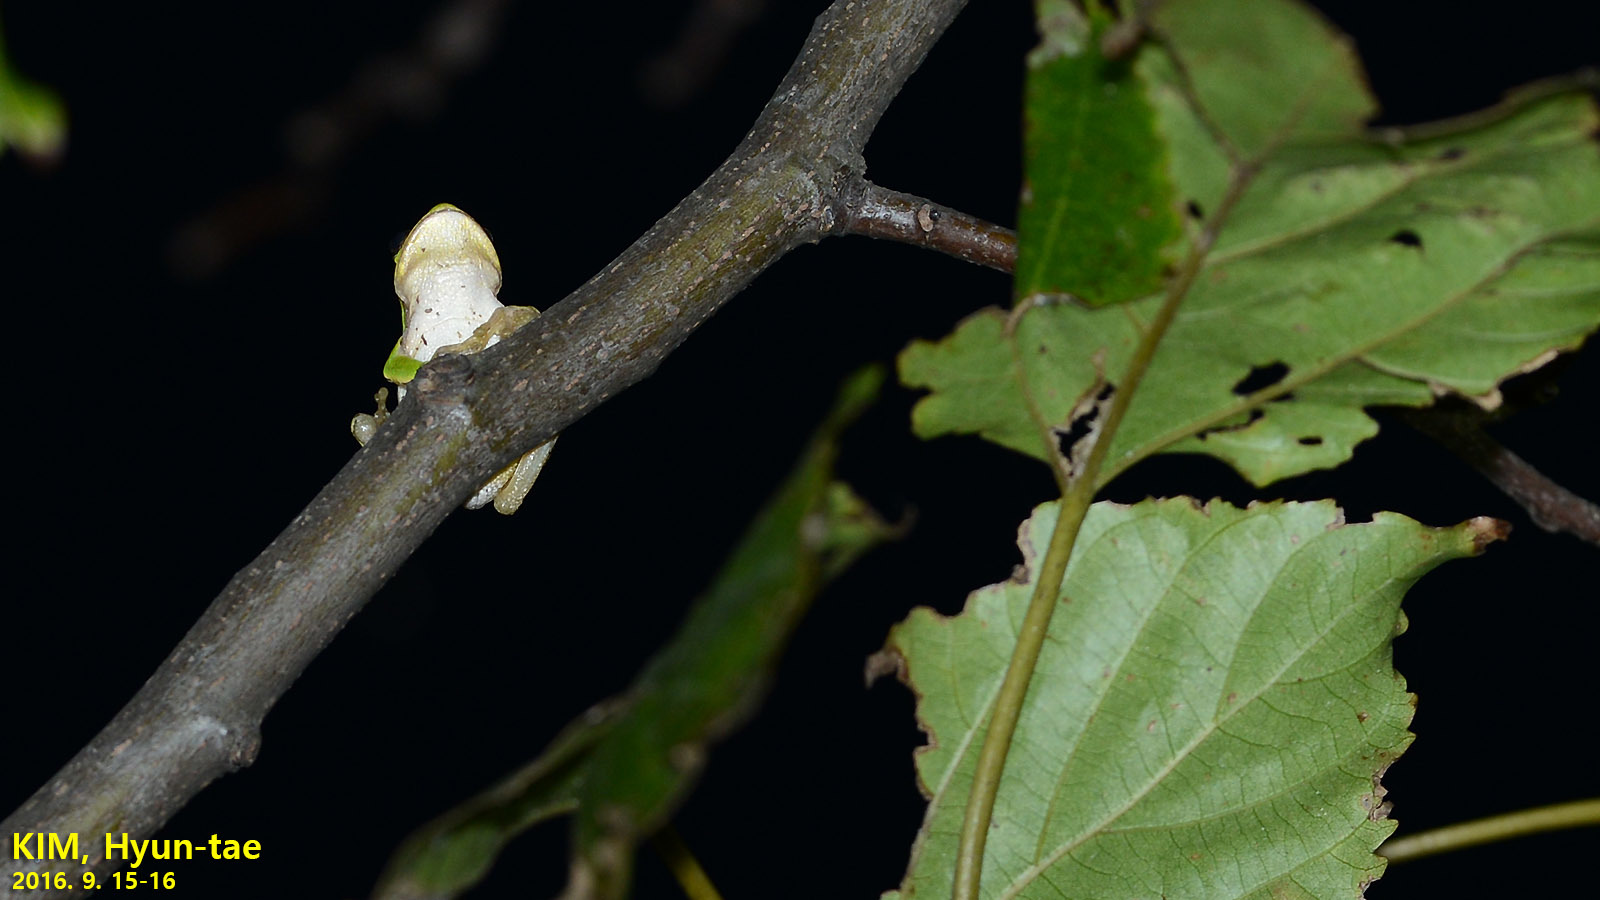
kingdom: Animalia
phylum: Chordata
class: Amphibia
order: Anura
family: Hylidae
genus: Dryophytes
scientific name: Dryophytes japonicus
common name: Japanese treefrog
